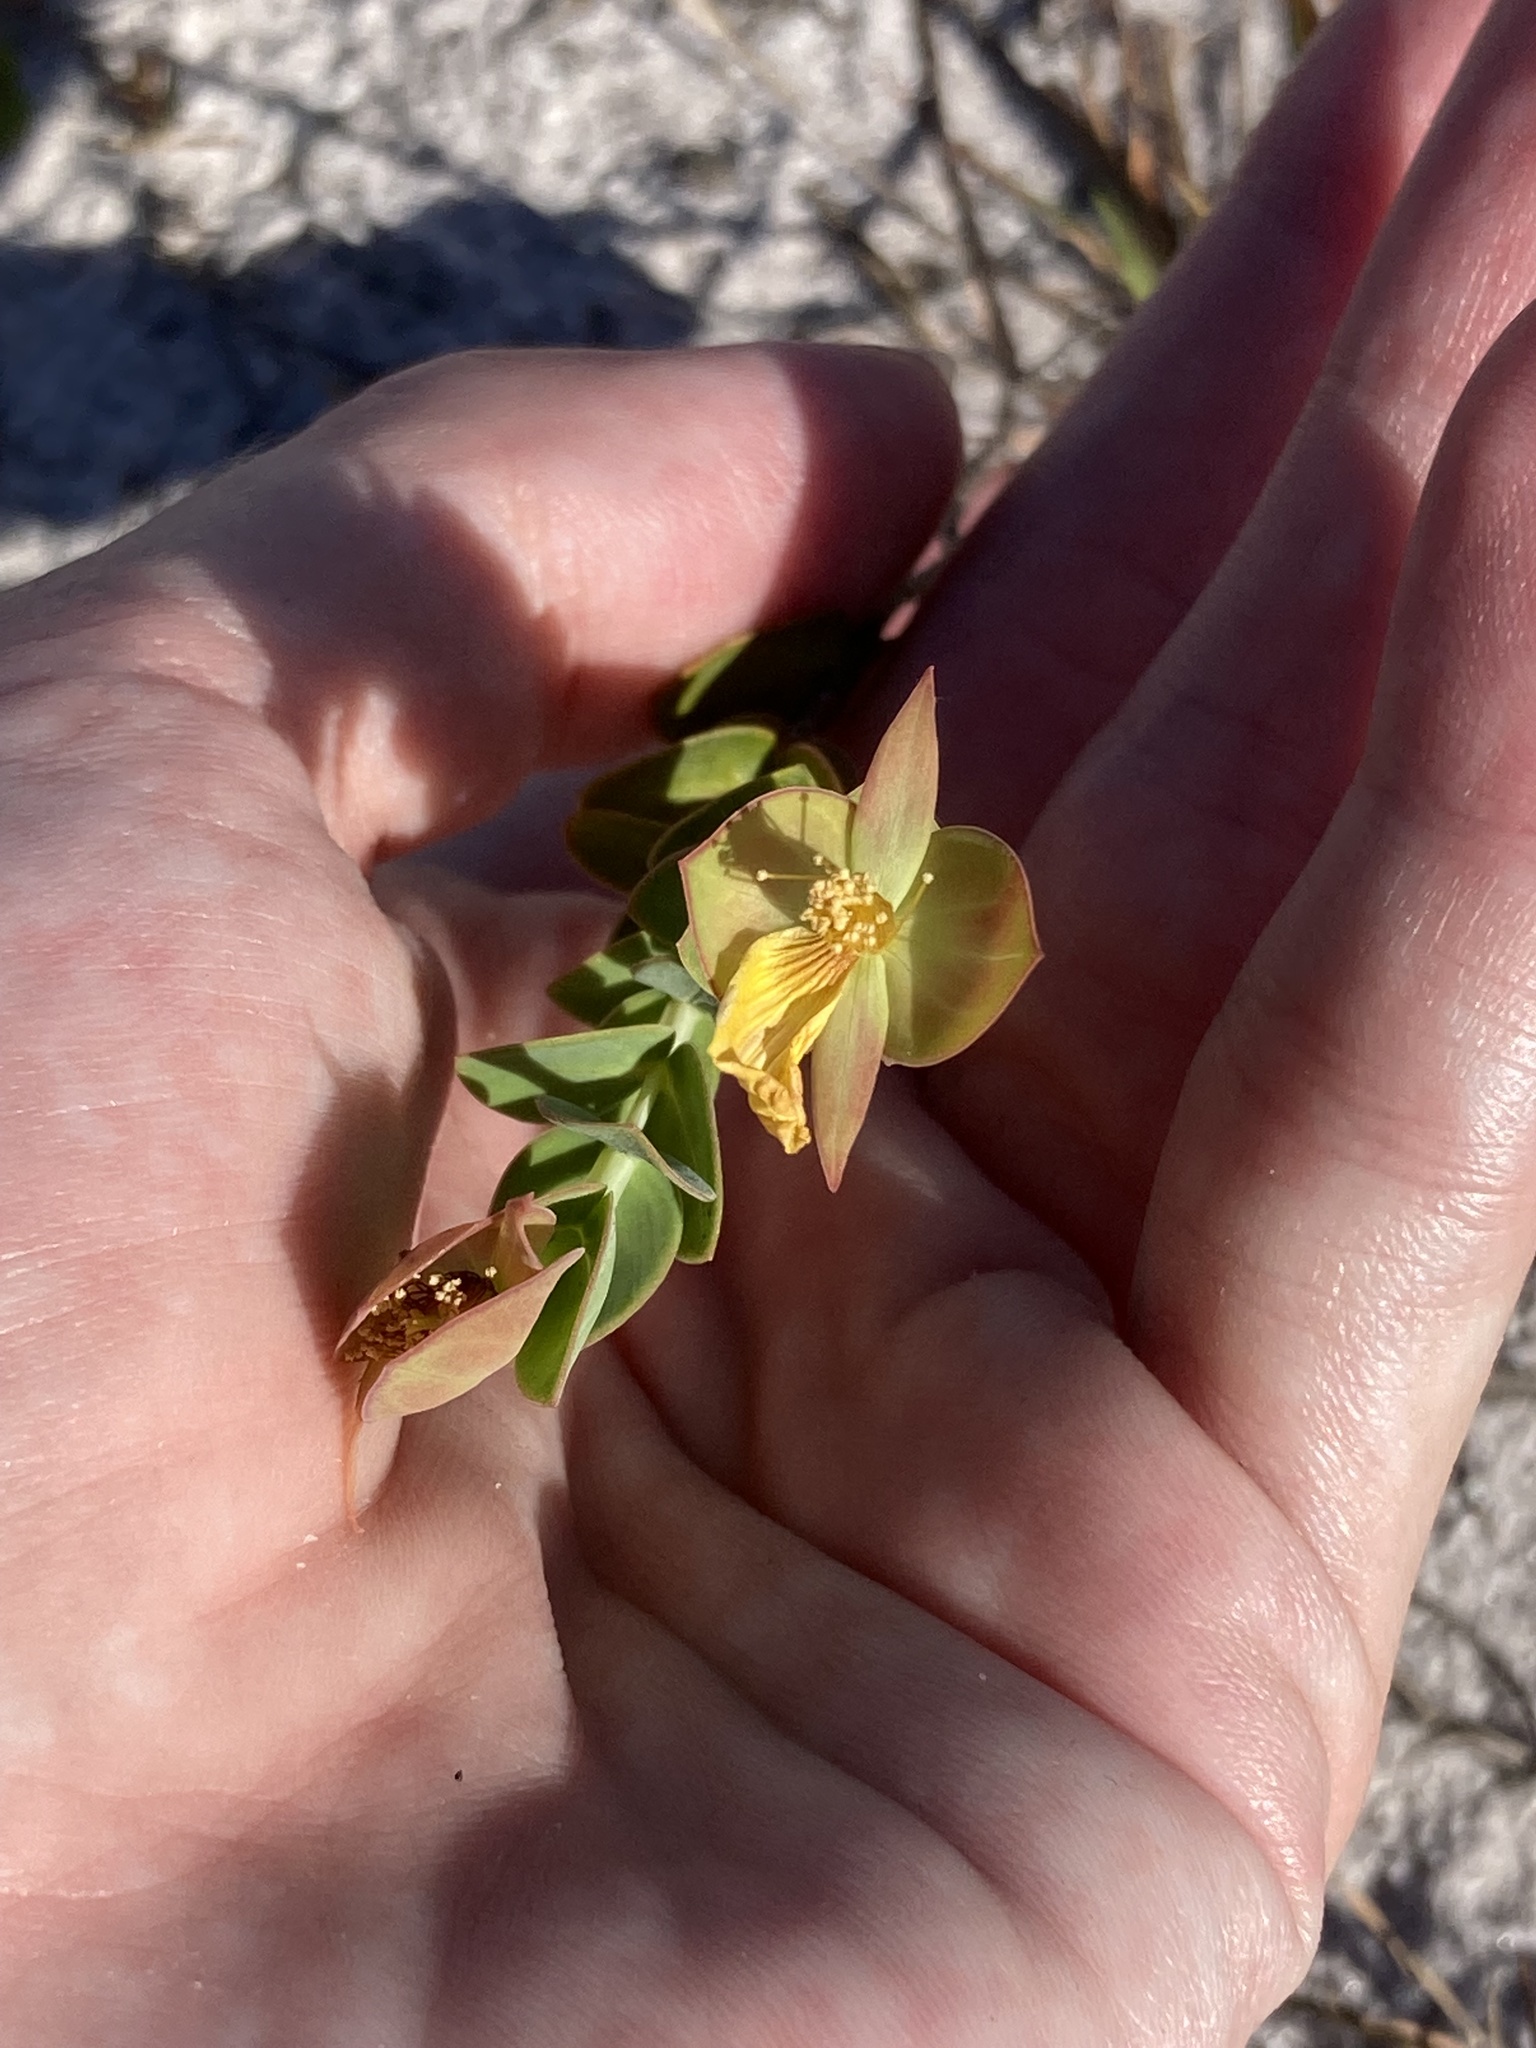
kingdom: Plantae
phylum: Tracheophyta
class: Magnoliopsida
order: Malpighiales
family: Hypericaceae
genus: Hypericum
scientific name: Hypericum tetrapetalum
